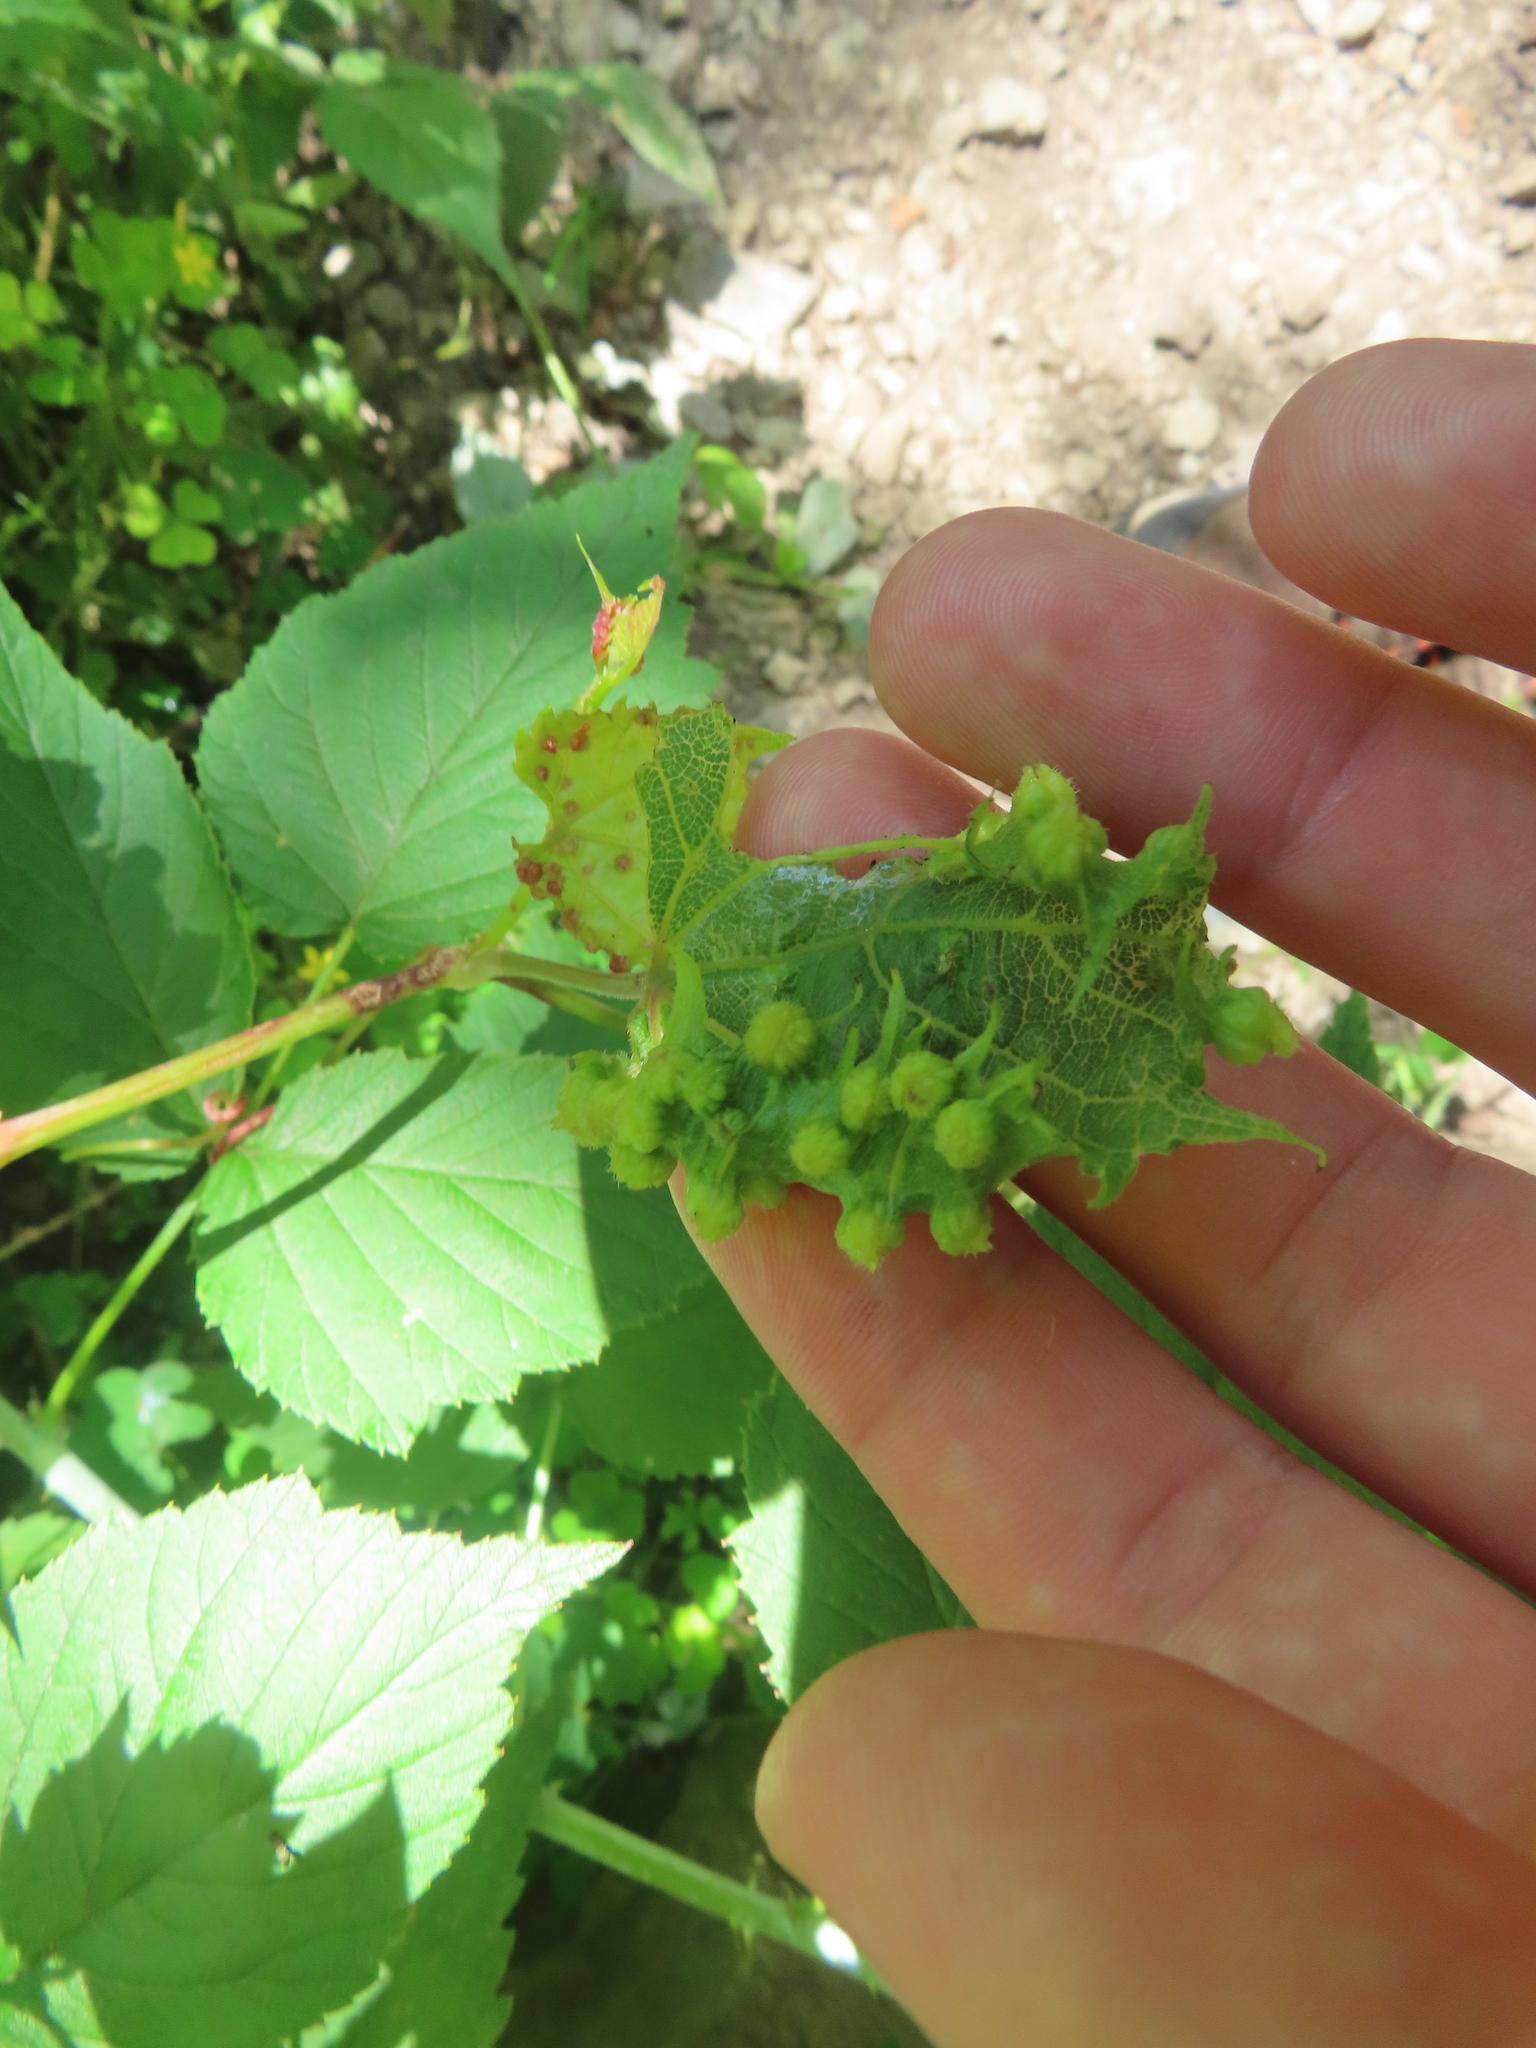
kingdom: Animalia
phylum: Arthropoda
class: Insecta
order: Hemiptera
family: Phylloxeridae
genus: Daktulosphaira
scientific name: Daktulosphaira vitifoliae
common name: Grape phylloxera
